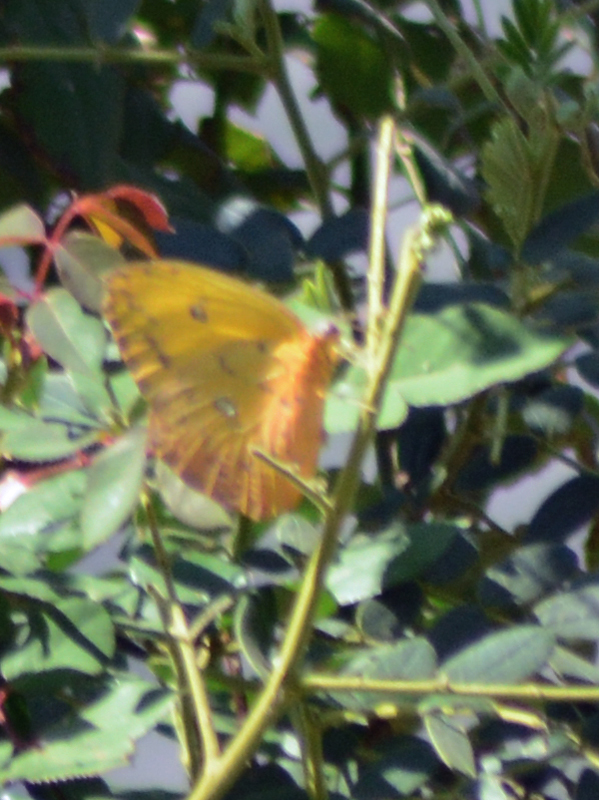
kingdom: Animalia
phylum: Arthropoda
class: Insecta
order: Lepidoptera
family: Pieridae
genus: Phoebis
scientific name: Phoebis philea
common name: Orange-barred giant sulphur
